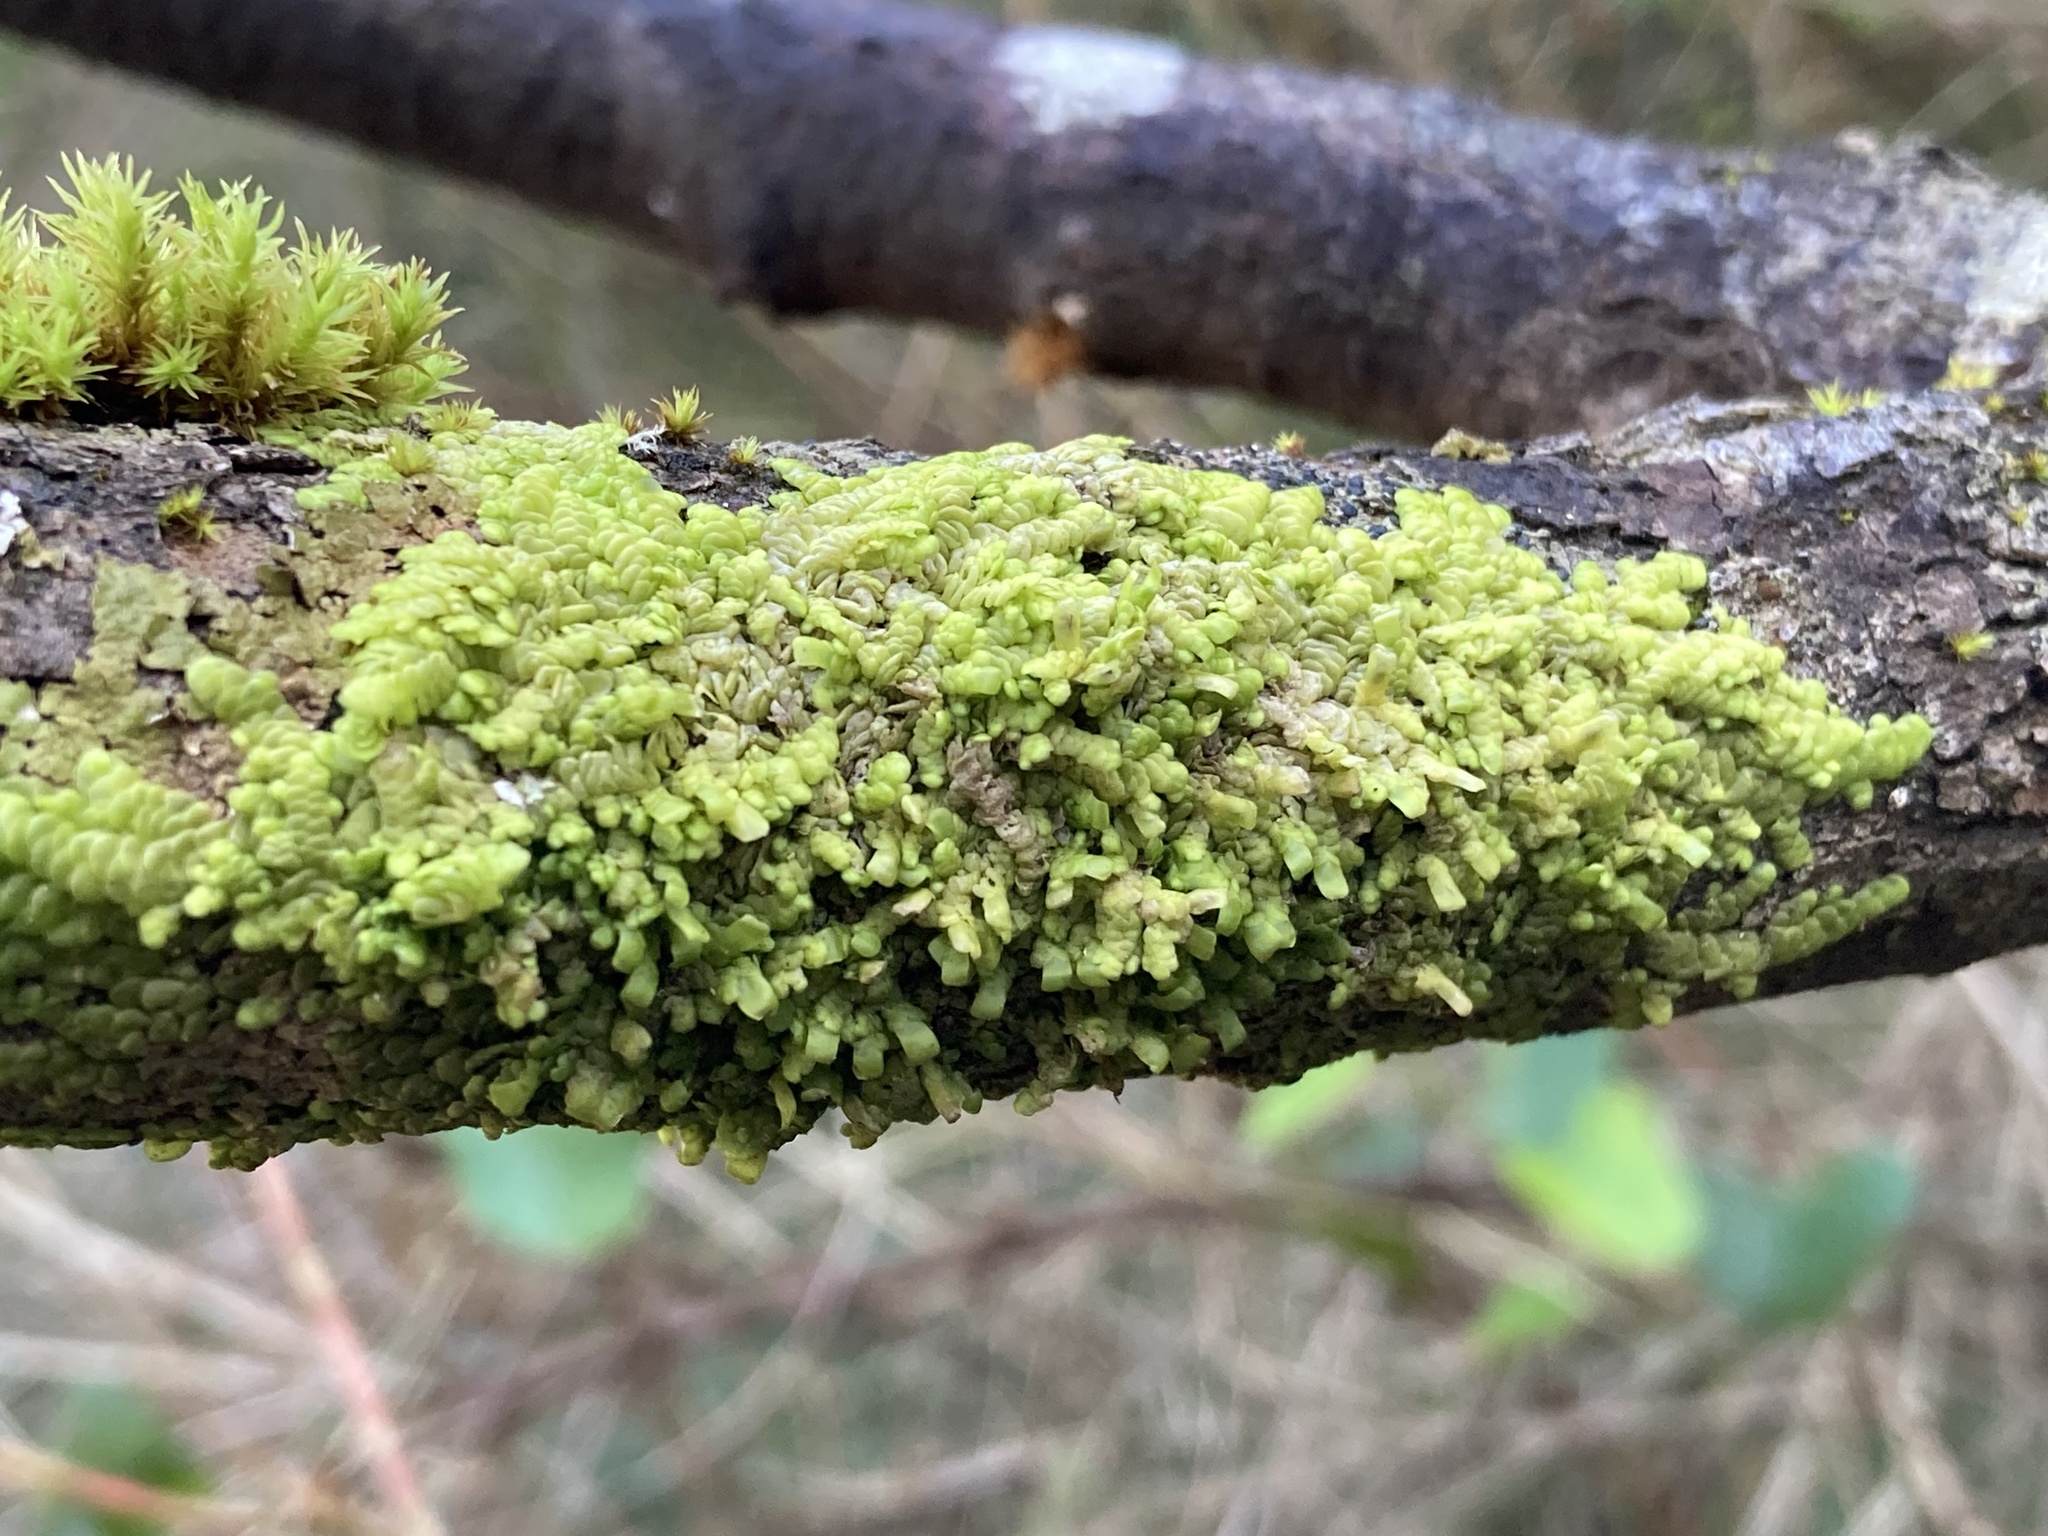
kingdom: Plantae
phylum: Marchantiophyta
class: Jungermanniopsida
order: Porellales
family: Radulaceae
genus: Radula
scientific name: Radula complanata
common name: Flat-leaved scalewort
